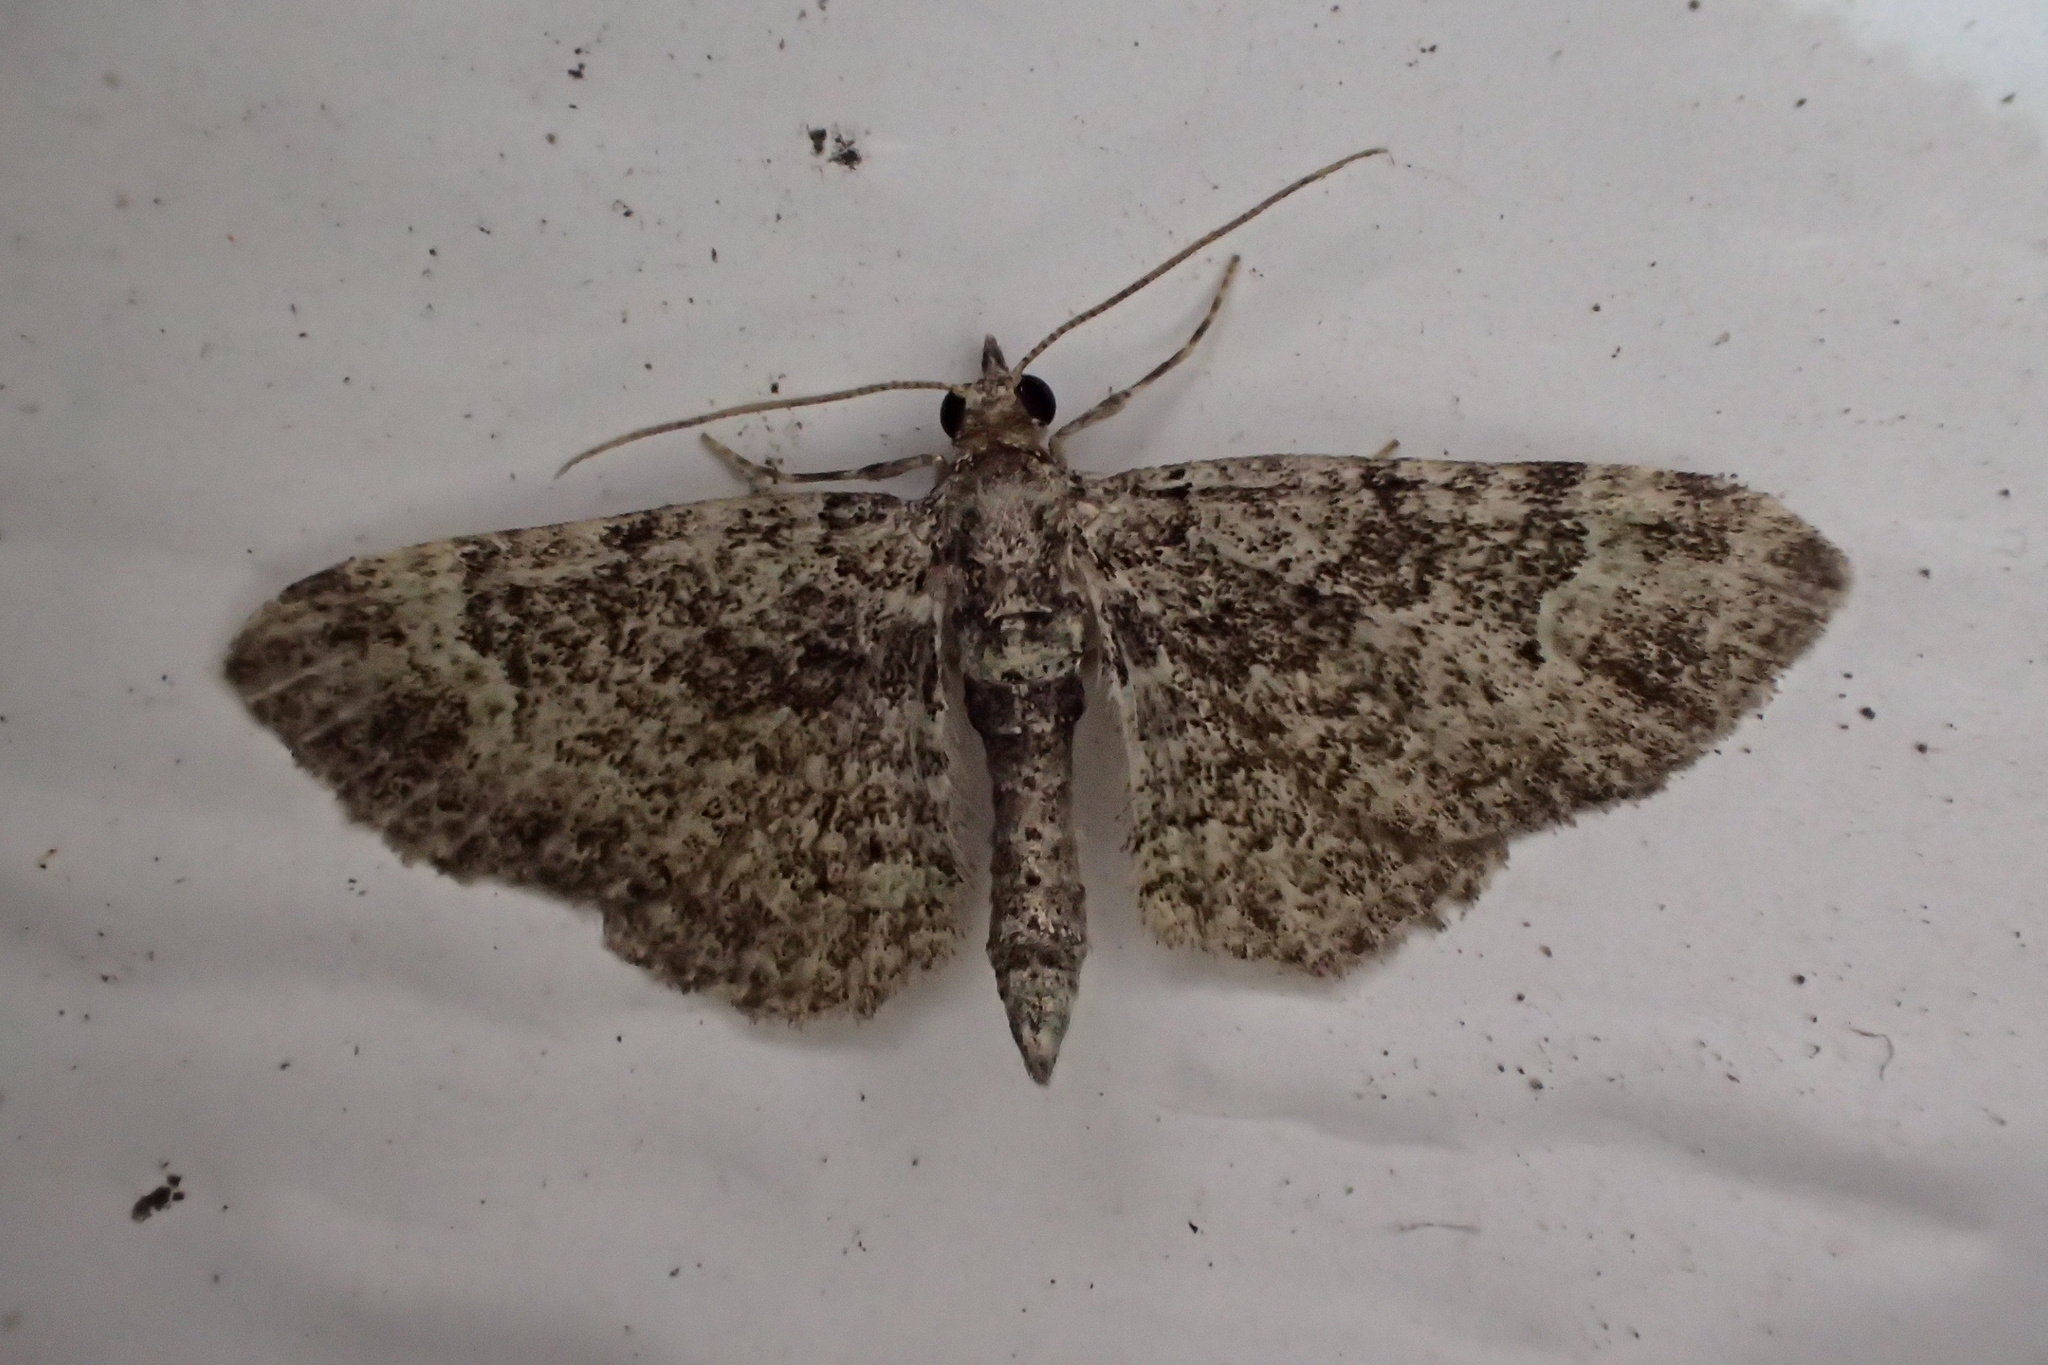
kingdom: Animalia
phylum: Arthropoda
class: Insecta
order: Lepidoptera
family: Geometridae
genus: Pasiphila
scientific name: Pasiphila rectangulata
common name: Green pug
